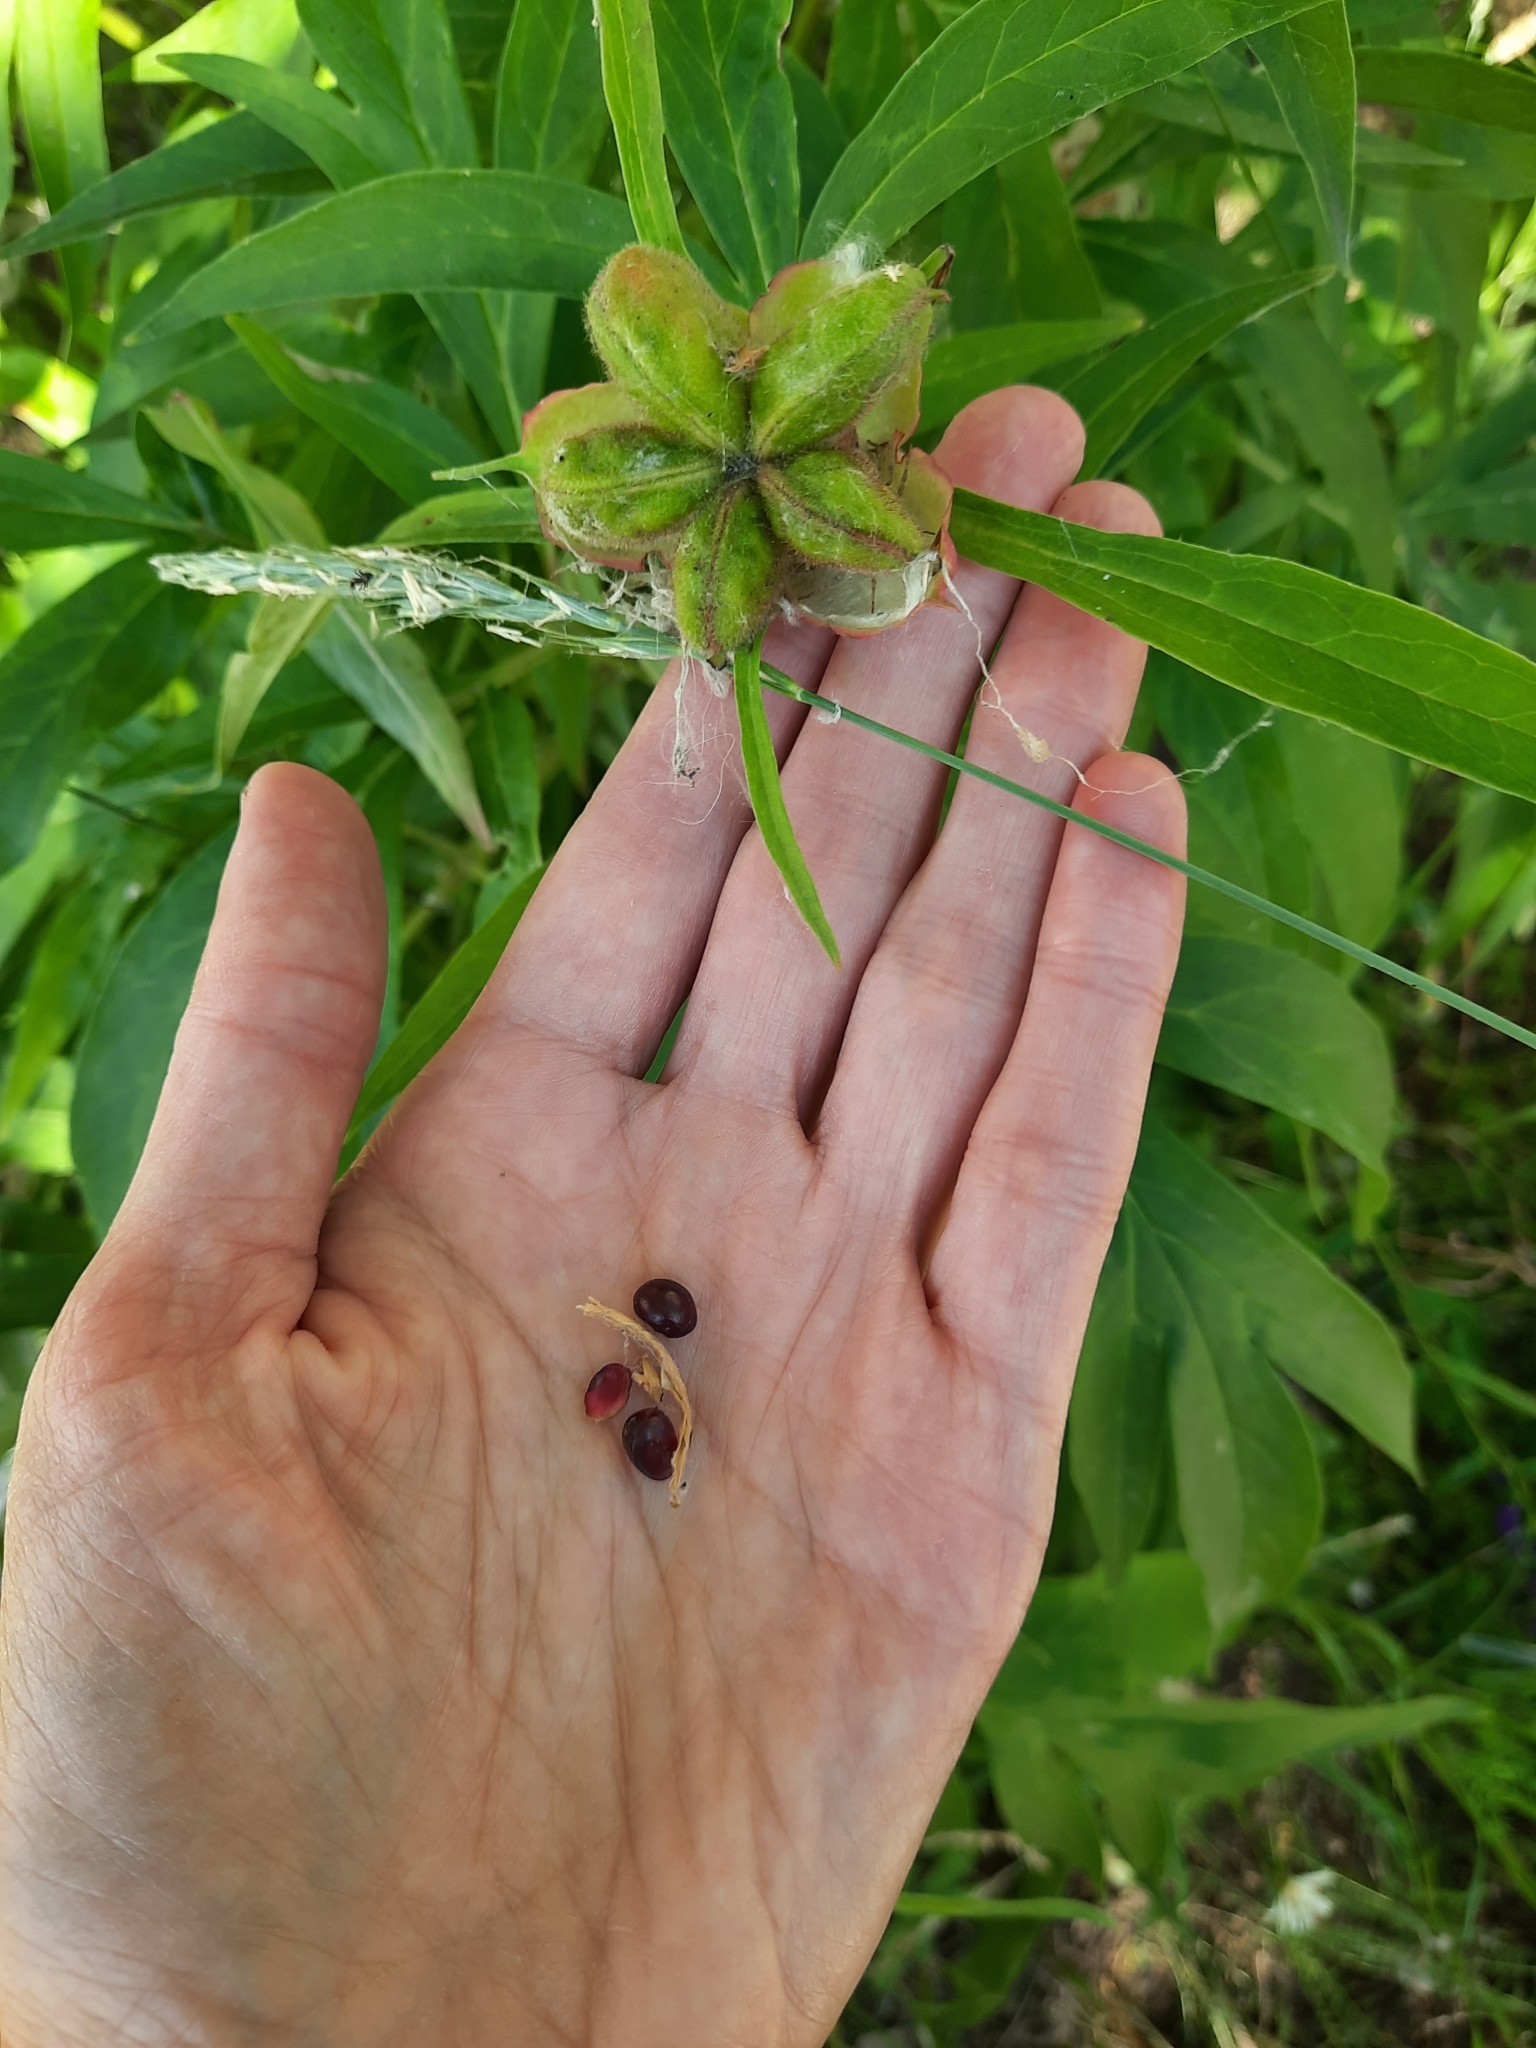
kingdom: Plantae
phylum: Tracheophyta
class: Magnoliopsida
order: Saxifragales
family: Paeoniaceae
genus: Paeonia
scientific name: Paeonia anomala
